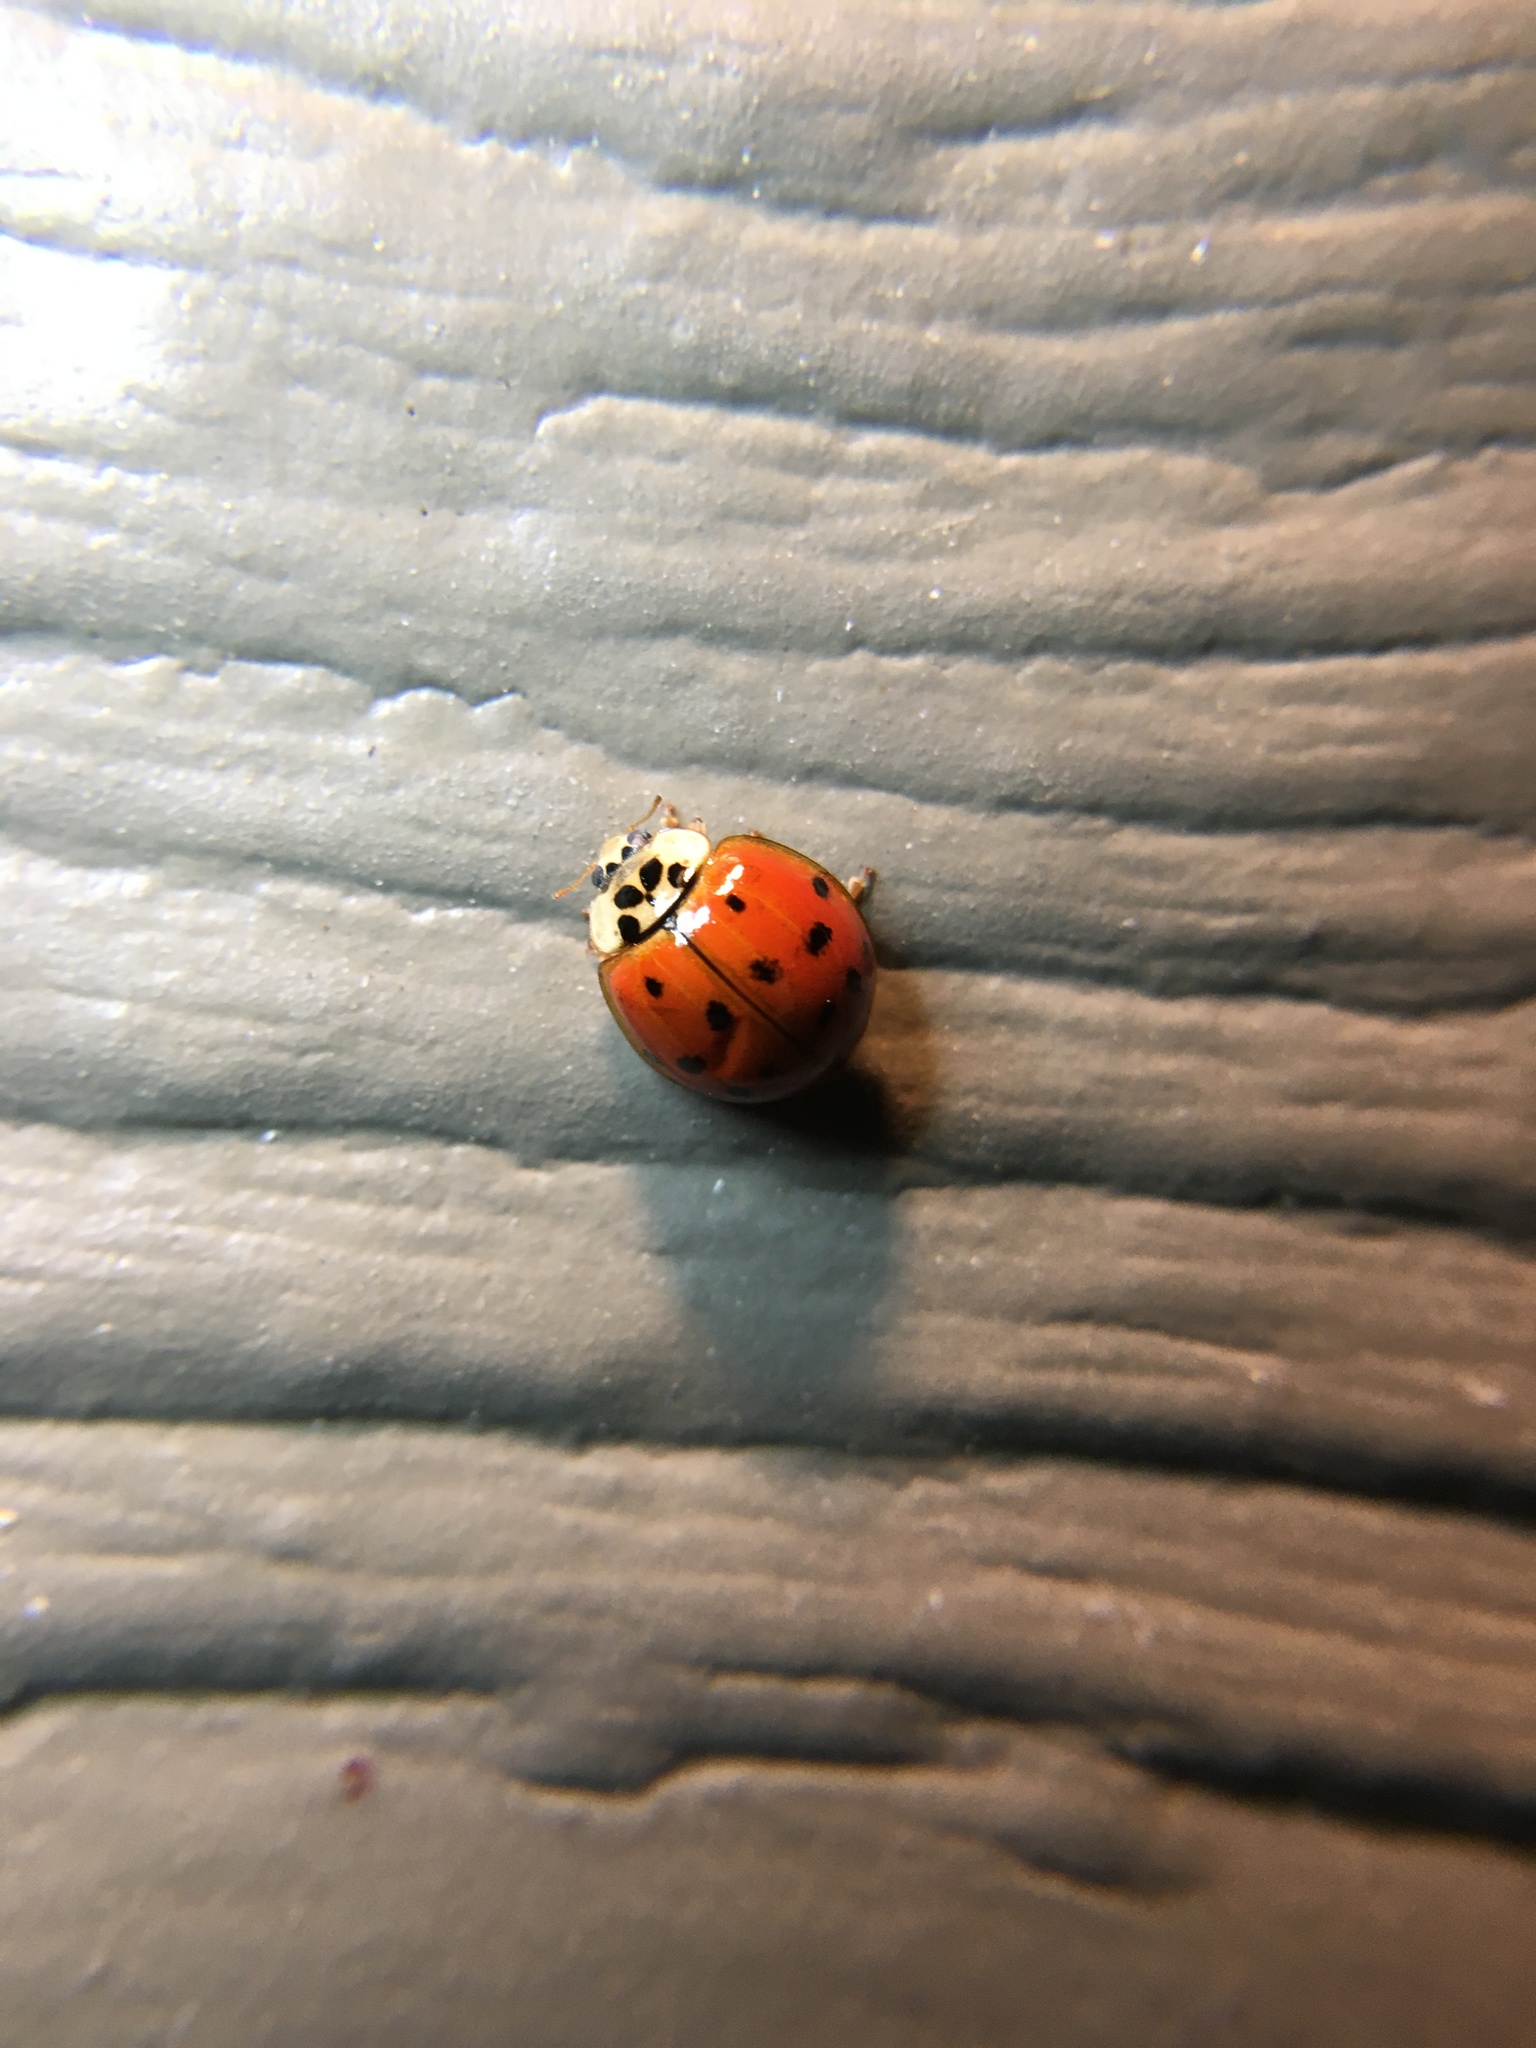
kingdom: Animalia
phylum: Arthropoda
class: Insecta
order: Coleoptera
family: Coccinellidae
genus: Harmonia
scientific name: Harmonia axyridis
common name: Harlequin ladybird
